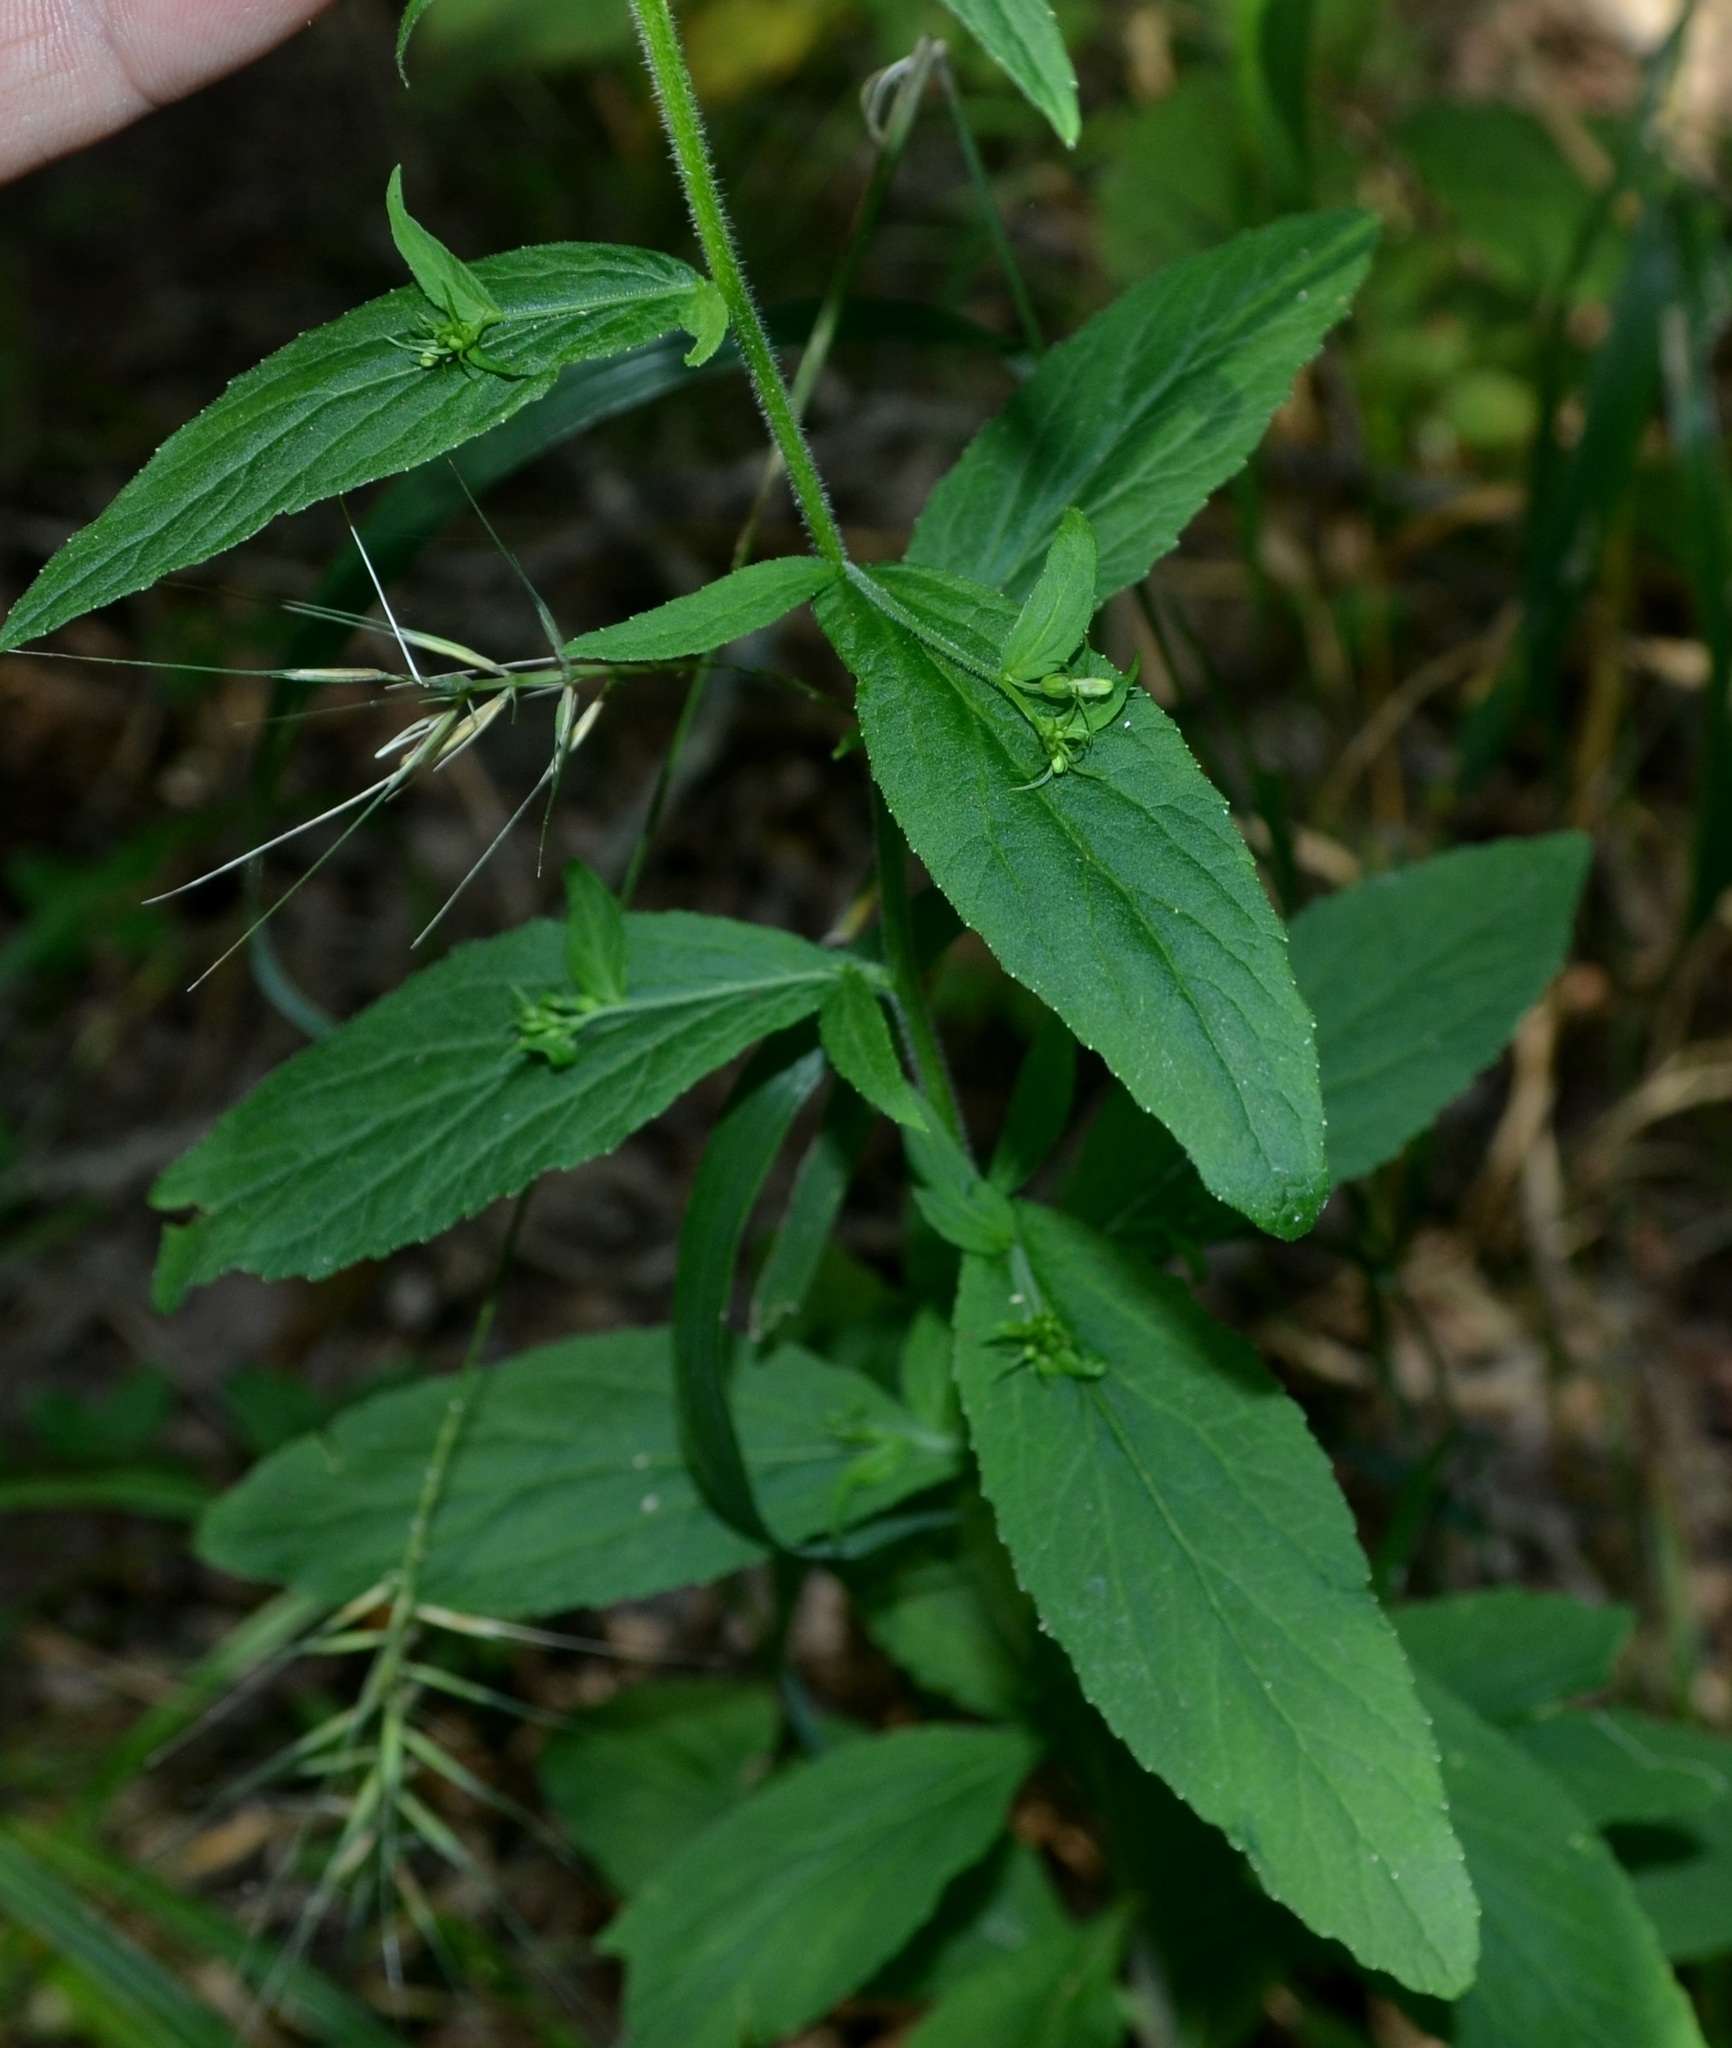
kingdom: Plantae
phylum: Tracheophyta
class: Magnoliopsida
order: Asterales
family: Campanulaceae
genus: Lobelia
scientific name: Lobelia inflata
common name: Indian tobacco
